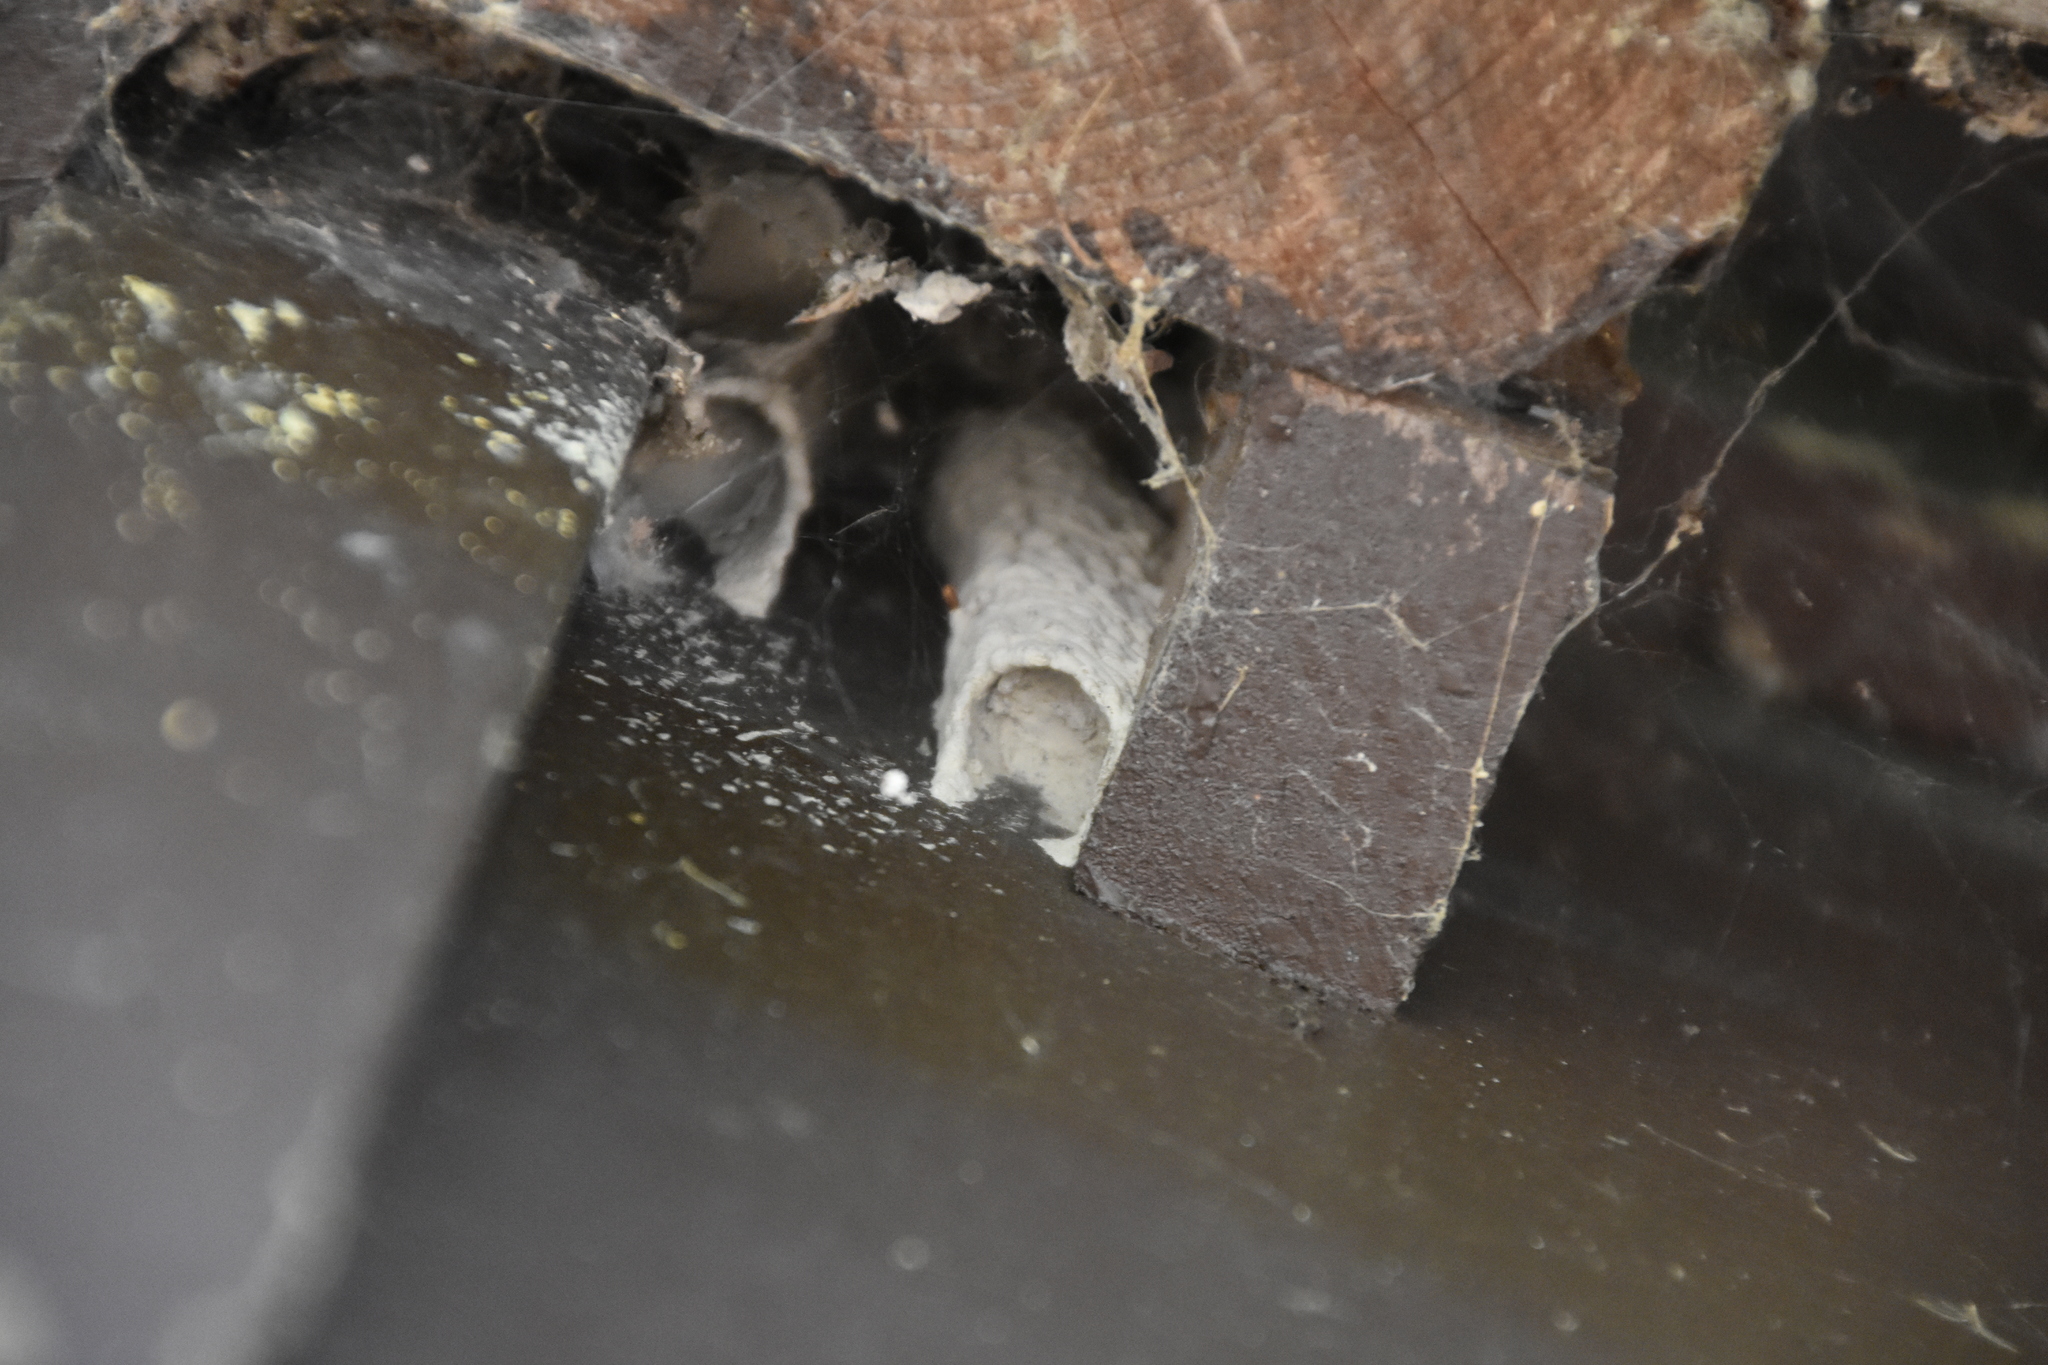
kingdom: Animalia
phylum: Arthropoda
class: Insecta
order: Hymenoptera
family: Crabronidae
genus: Trypoxylon
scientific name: Trypoxylon politum
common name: Organ-pipe mud-dauber wasp
